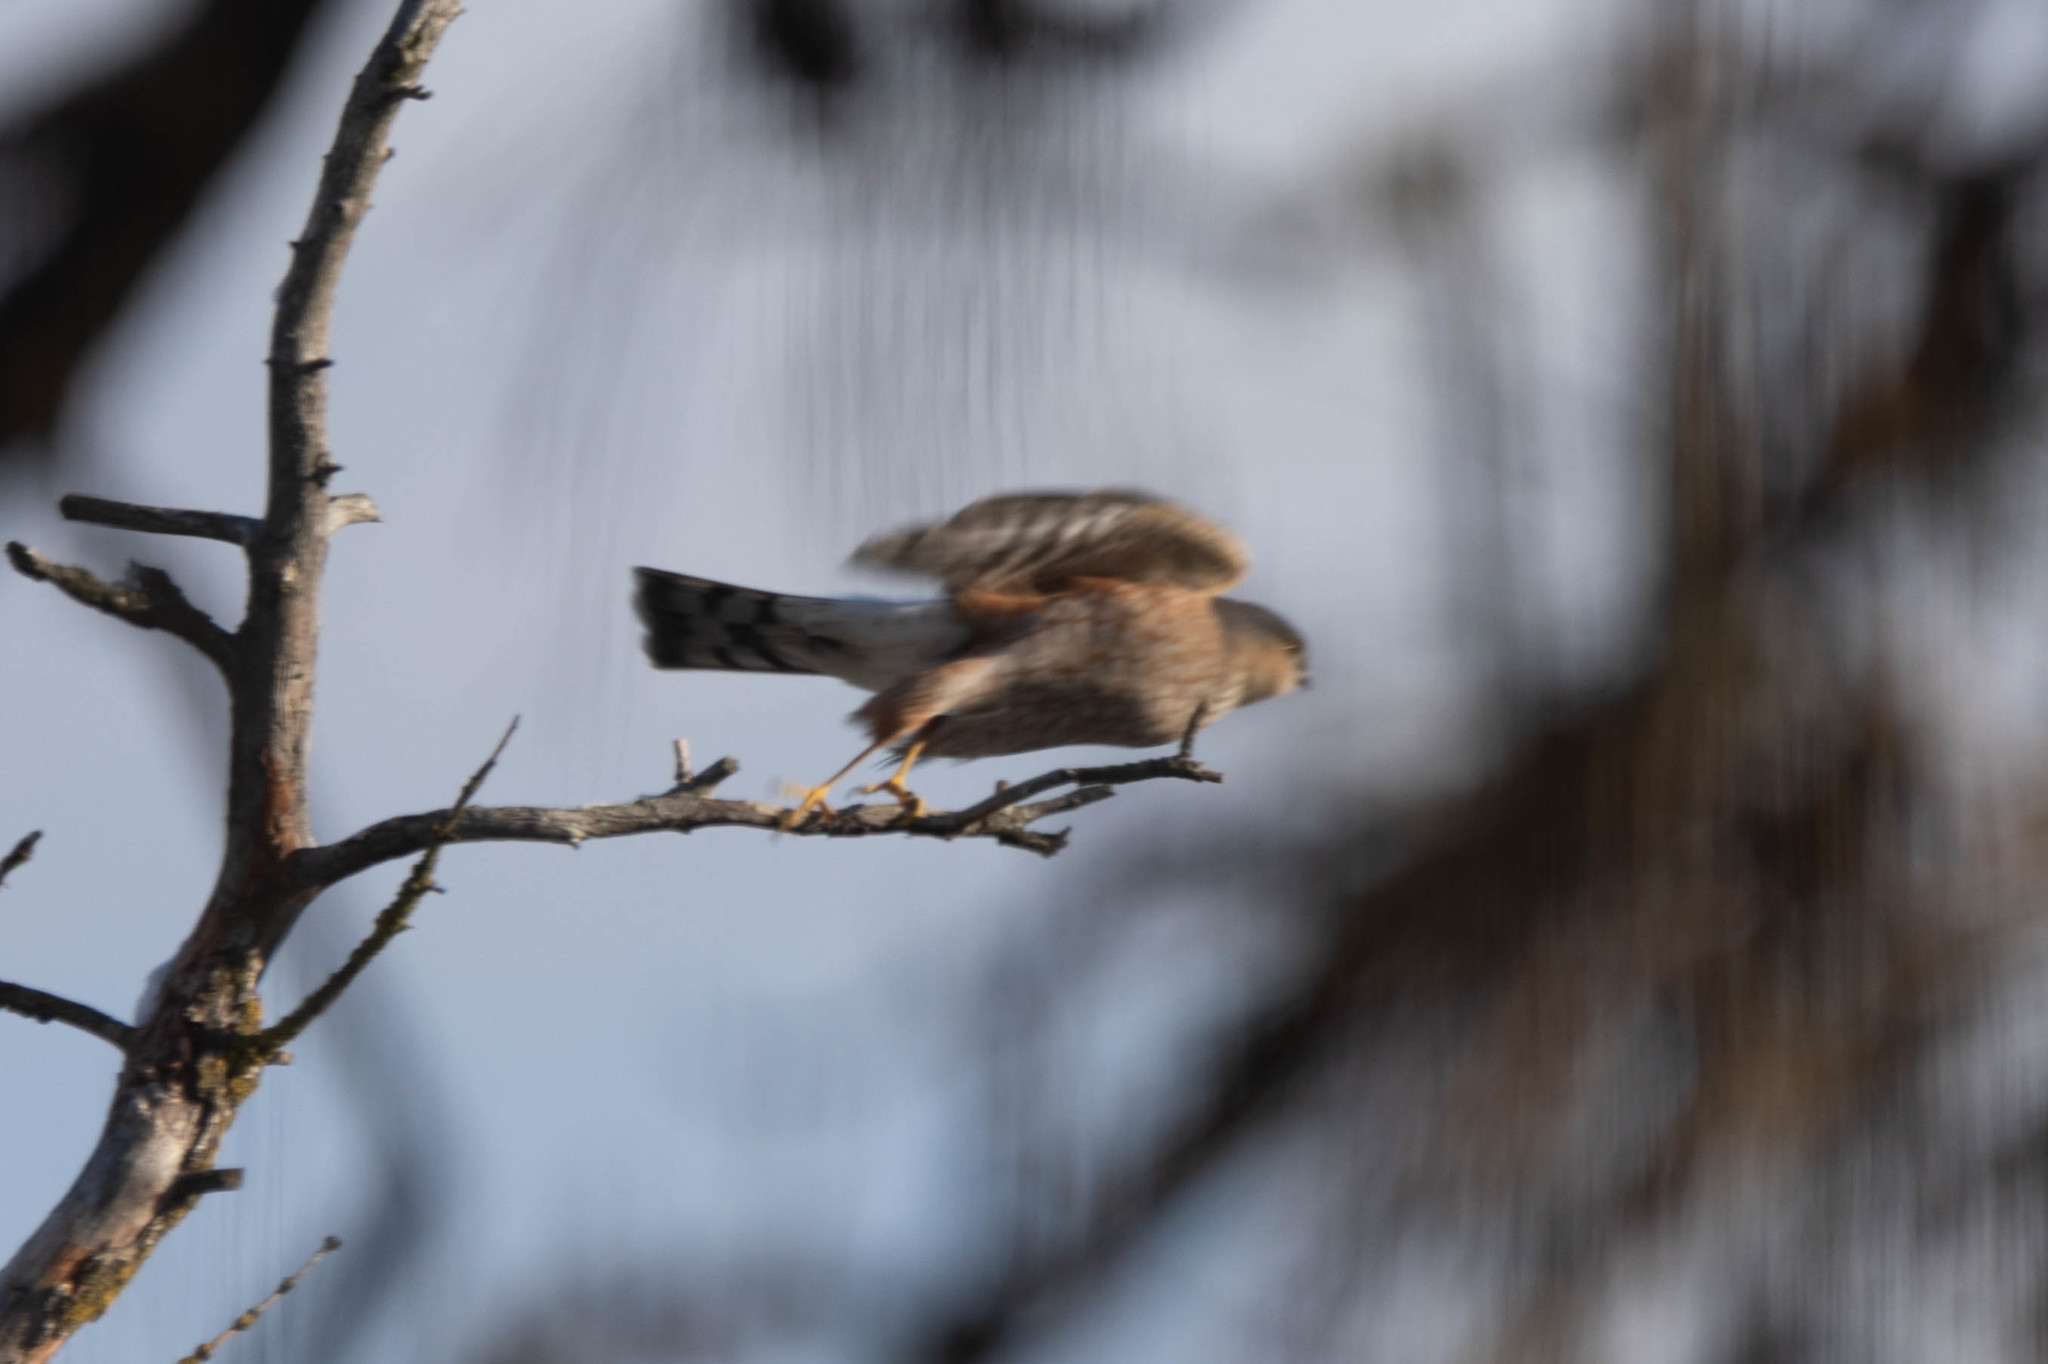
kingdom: Animalia
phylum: Chordata
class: Aves
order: Accipitriformes
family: Accipitridae
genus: Accipiter
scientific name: Accipiter striatus
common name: Sharp-shinned hawk
